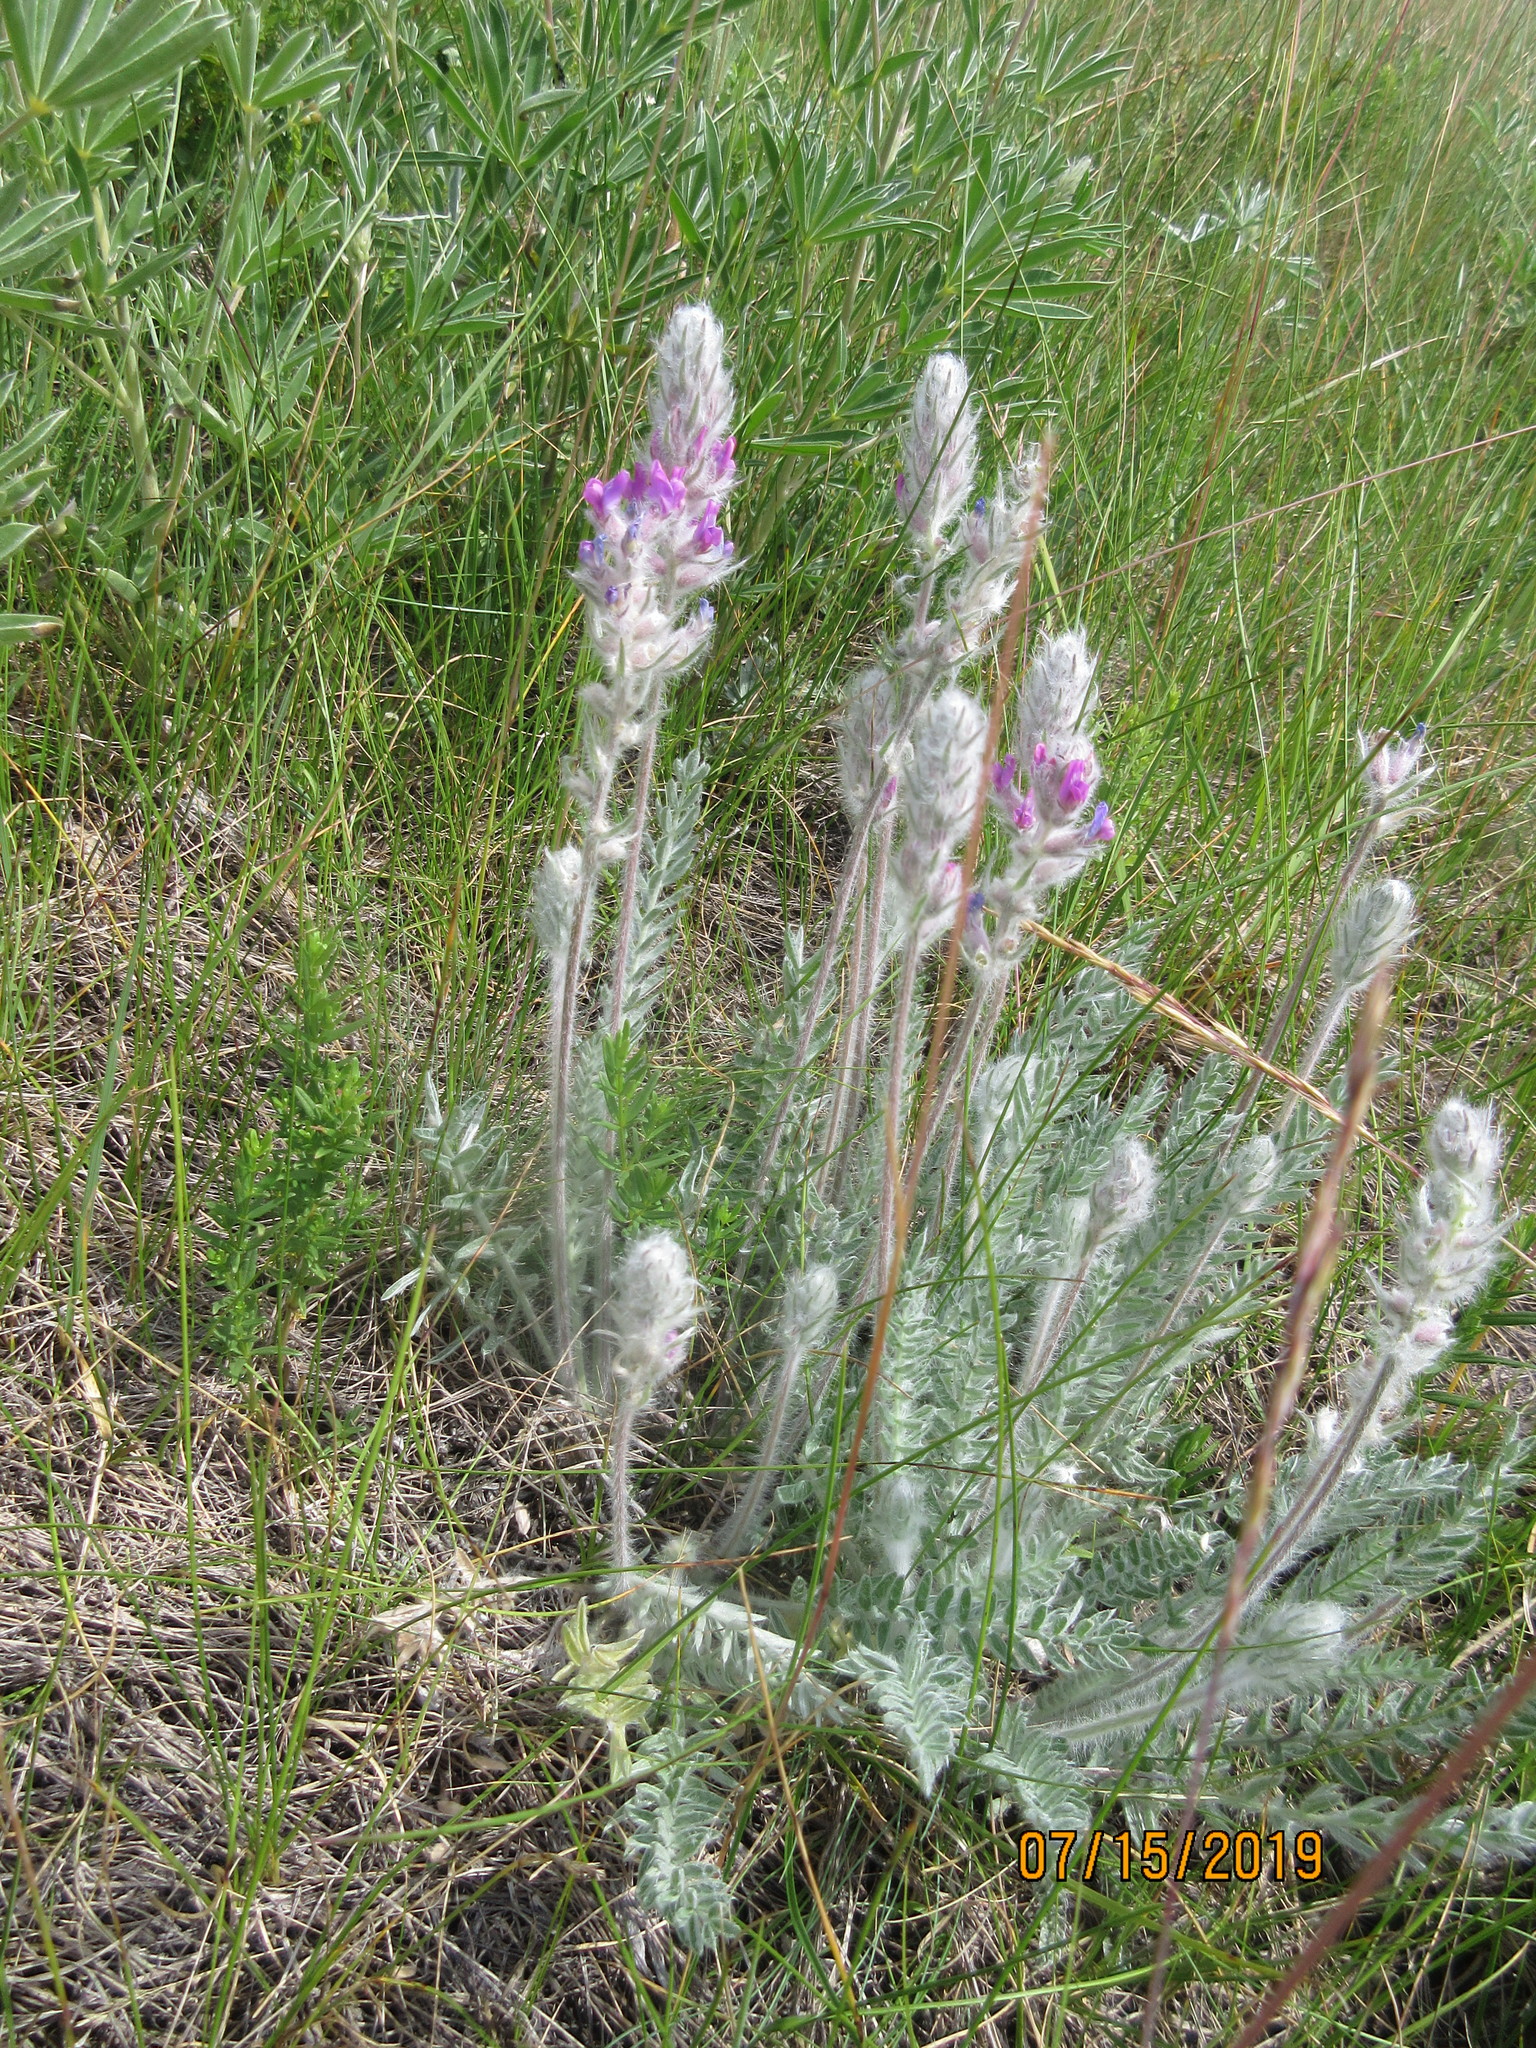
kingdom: Plantae
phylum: Tracheophyta
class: Magnoliopsida
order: Fabales
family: Fabaceae
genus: Oxytropis
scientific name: Oxytropis splendens
